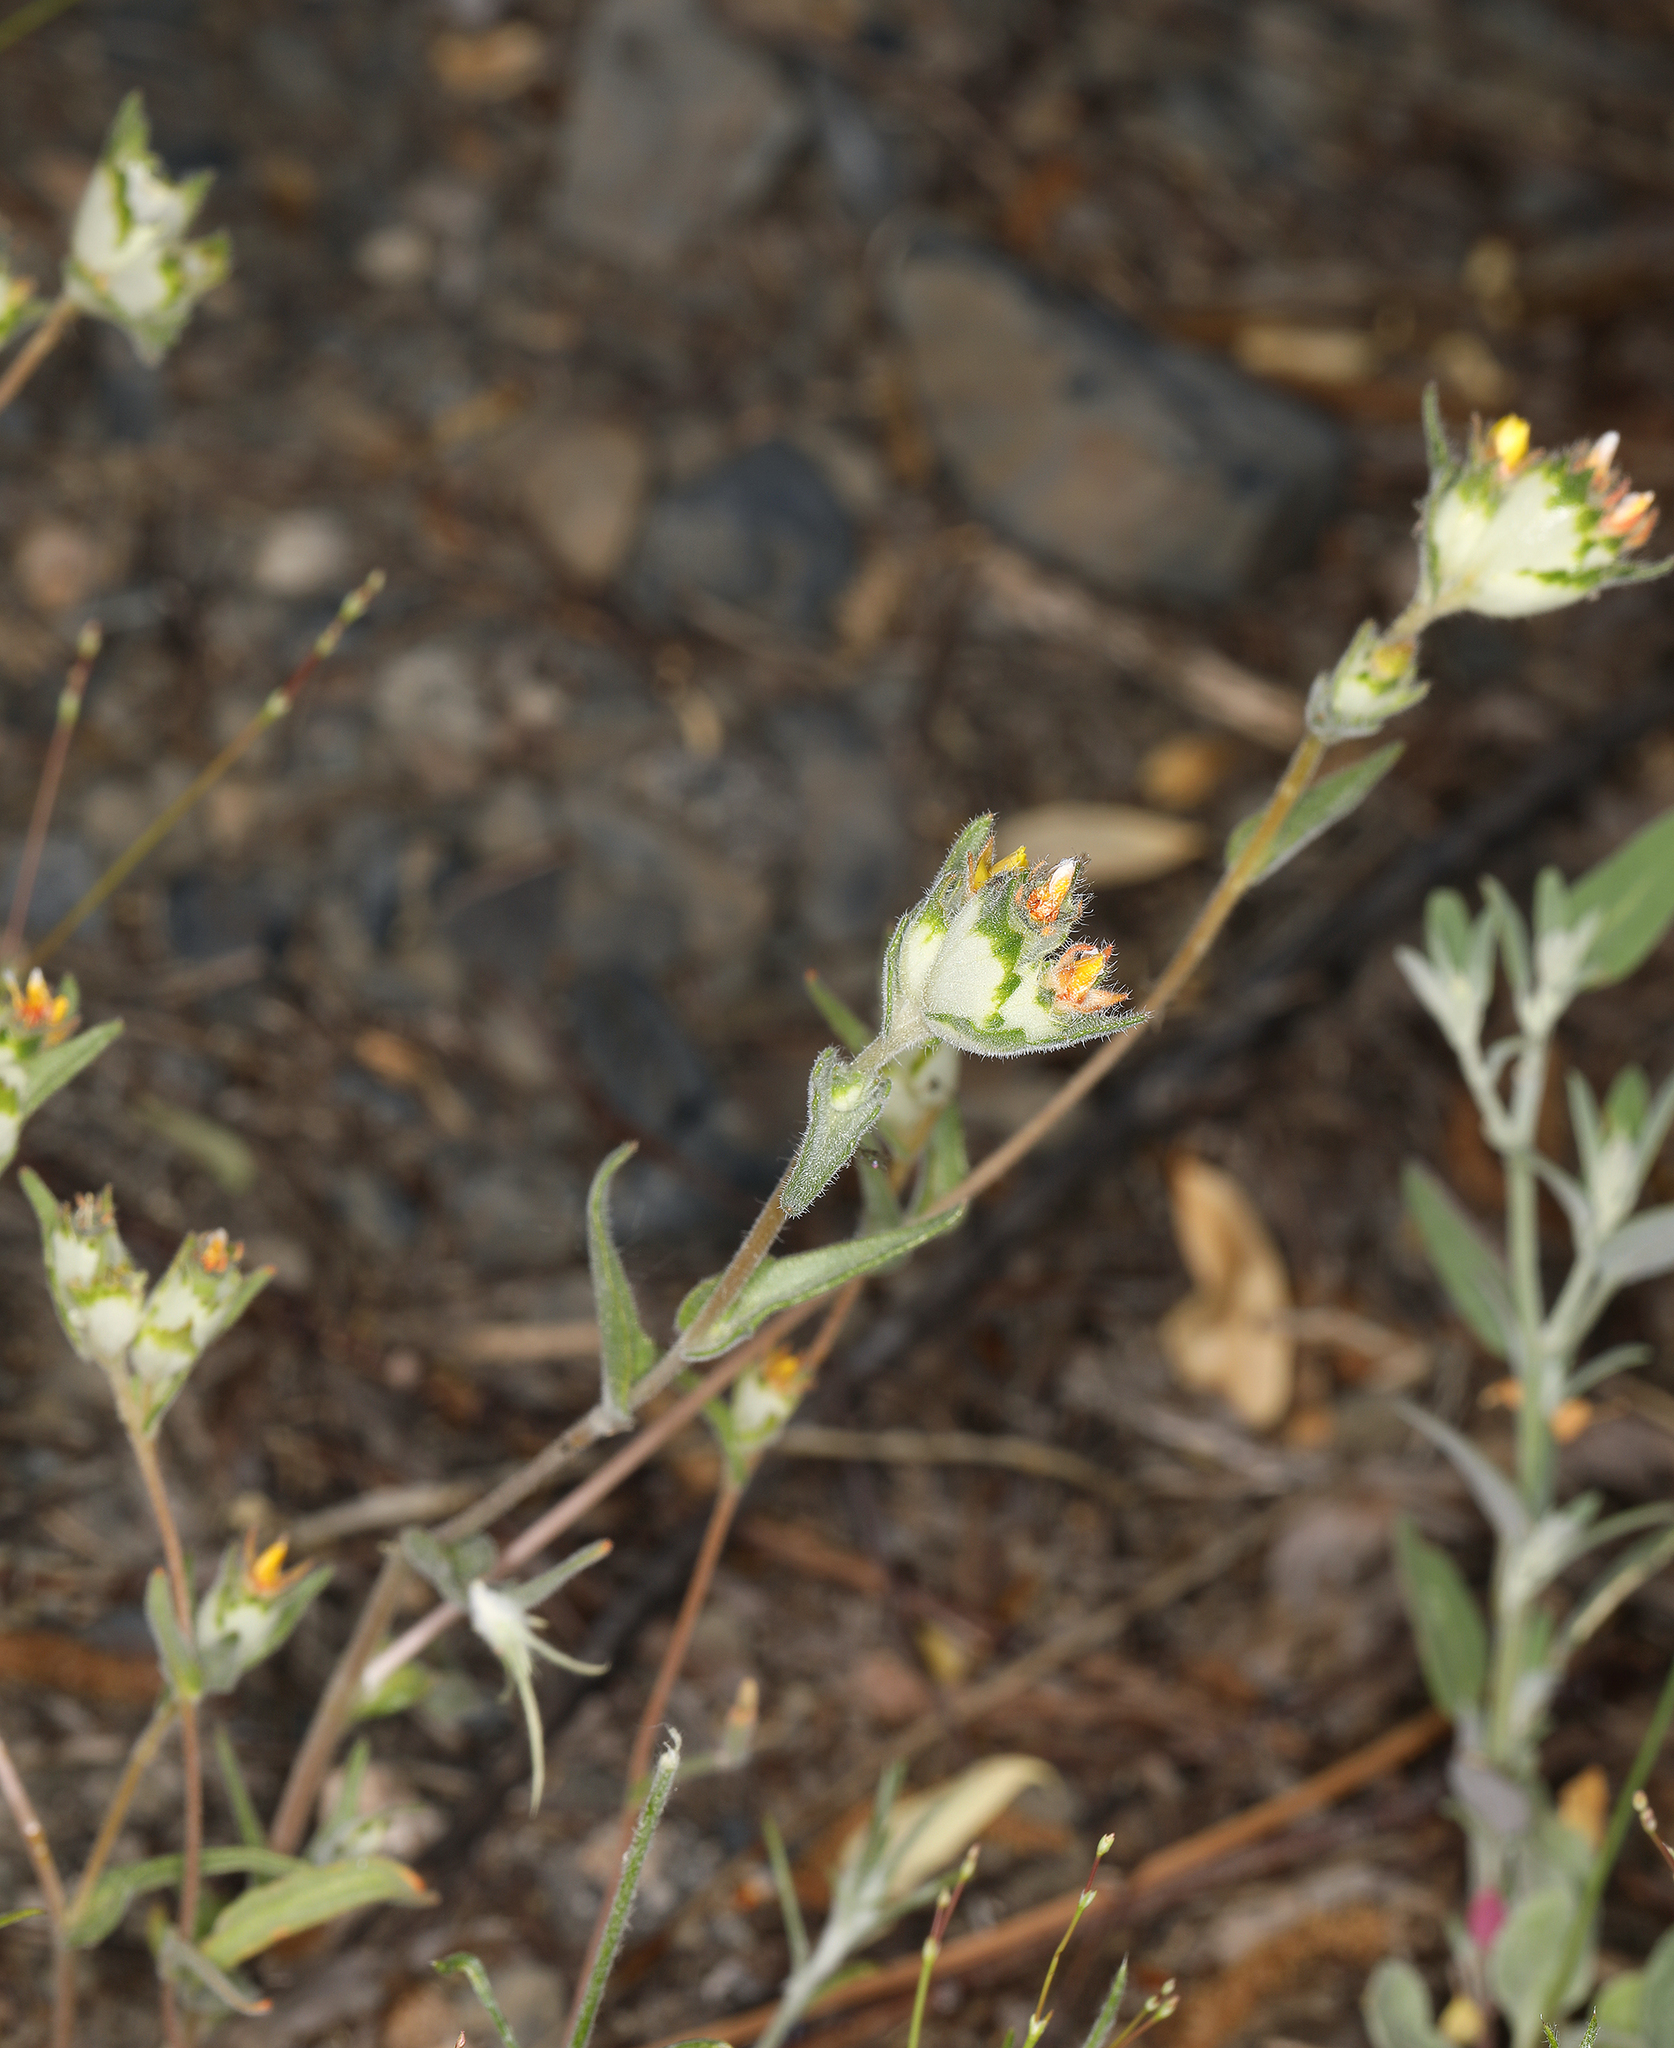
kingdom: Plantae
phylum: Tracheophyta
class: Magnoliopsida
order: Cornales
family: Loasaceae
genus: Mentzelia
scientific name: Mentzelia congesta
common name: Ventana blazingstar
